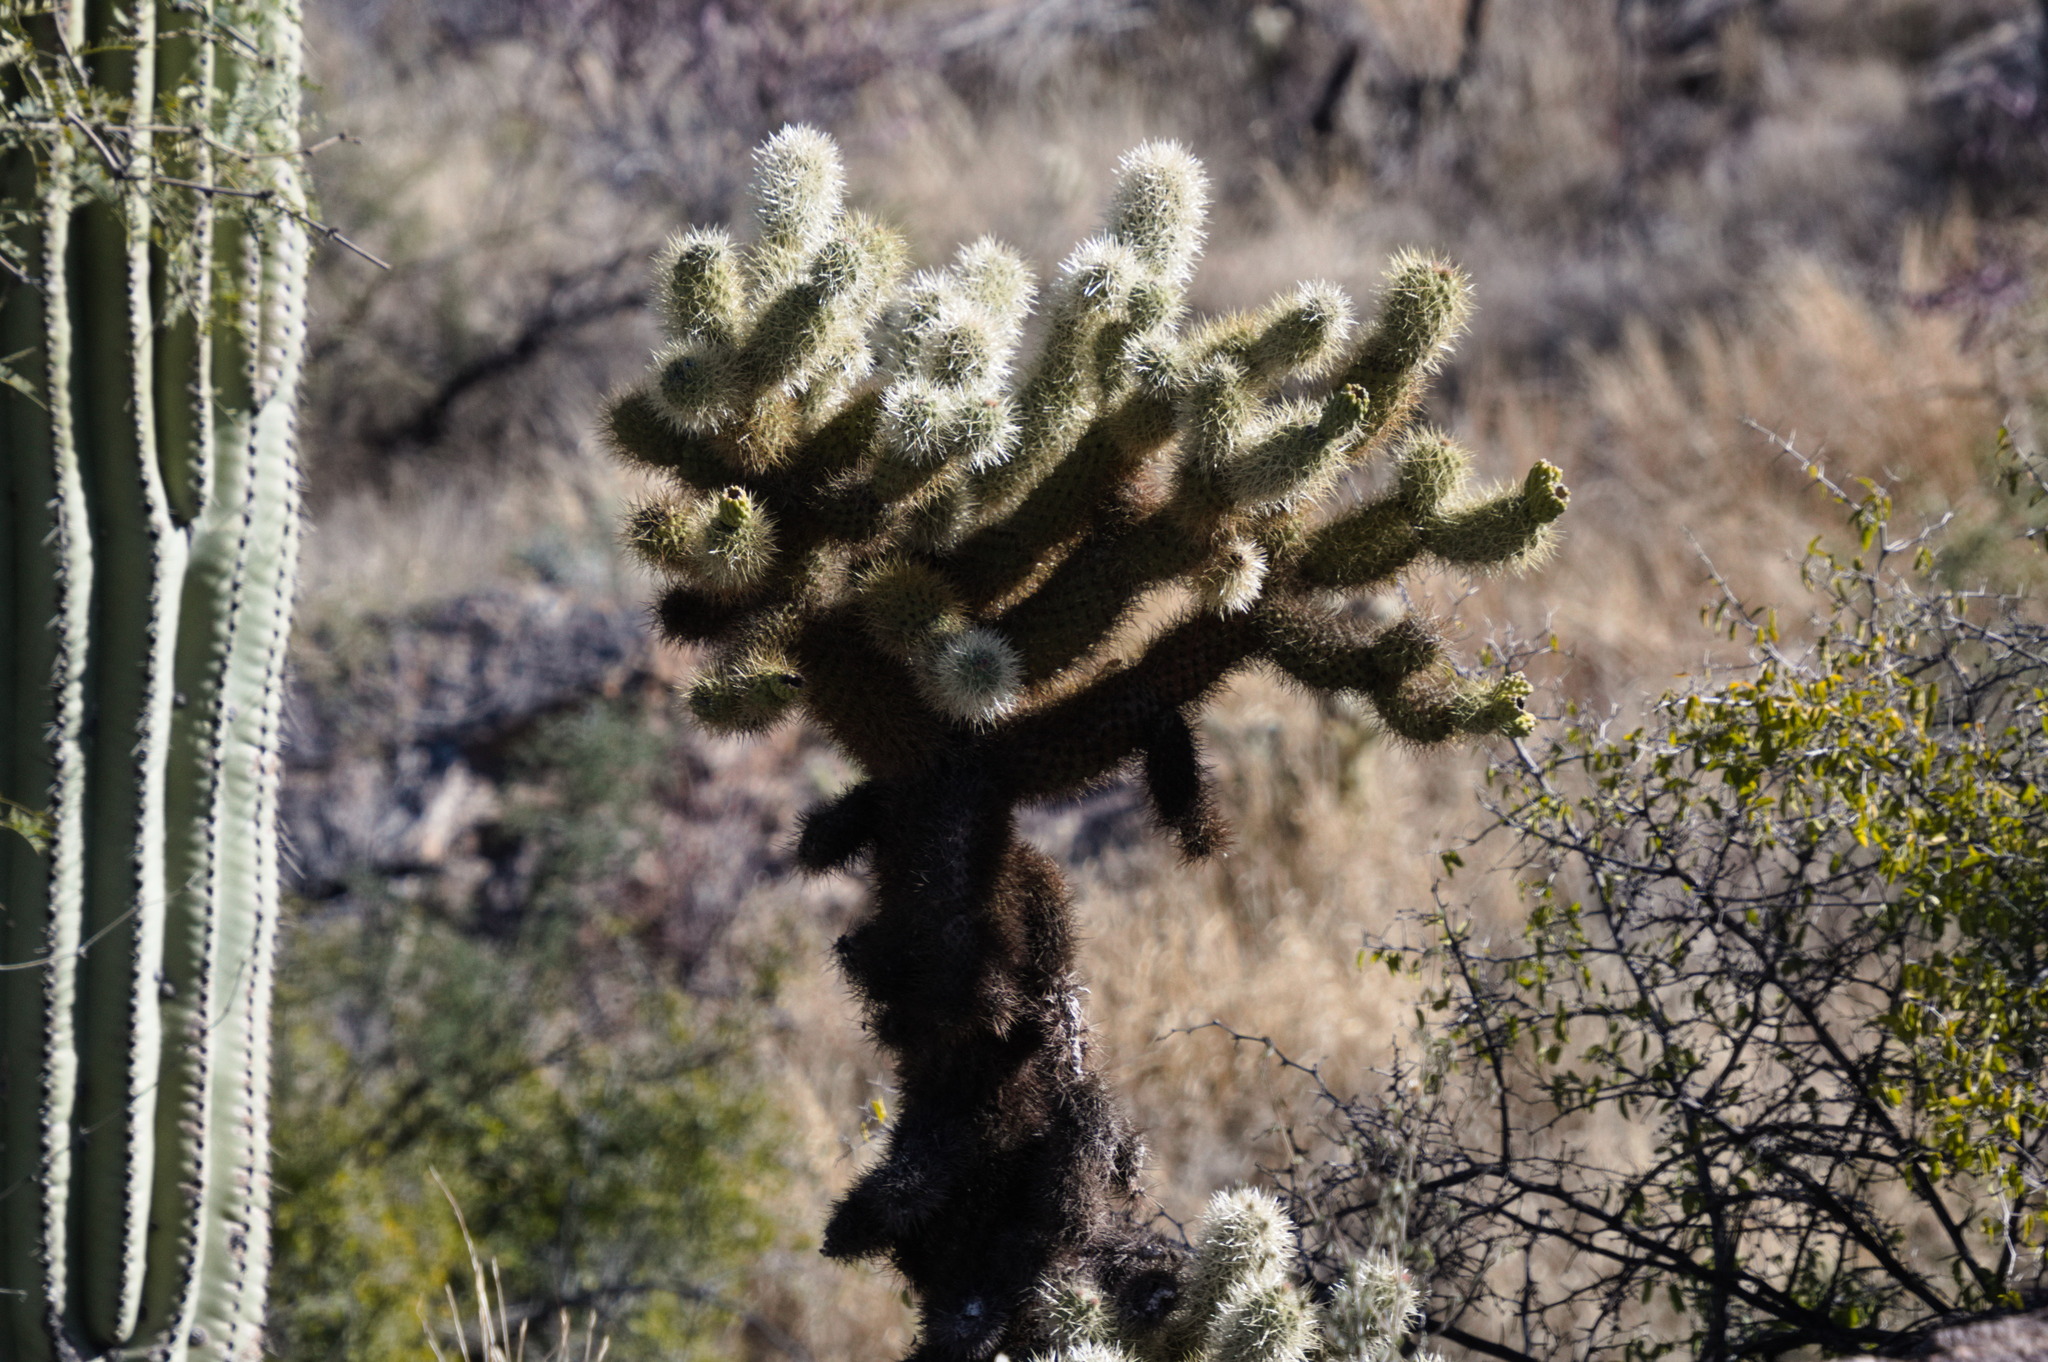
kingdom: Plantae
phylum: Tracheophyta
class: Magnoliopsida
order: Caryophyllales
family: Cactaceae
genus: Cylindropuntia
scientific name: Cylindropuntia fosbergii
